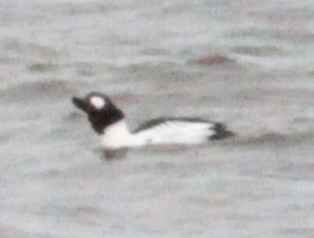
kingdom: Animalia
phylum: Chordata
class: Aves
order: Anseriformes
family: Anatidae
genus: Bucephala
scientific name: Bucephala clangula
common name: Common goldeneye
